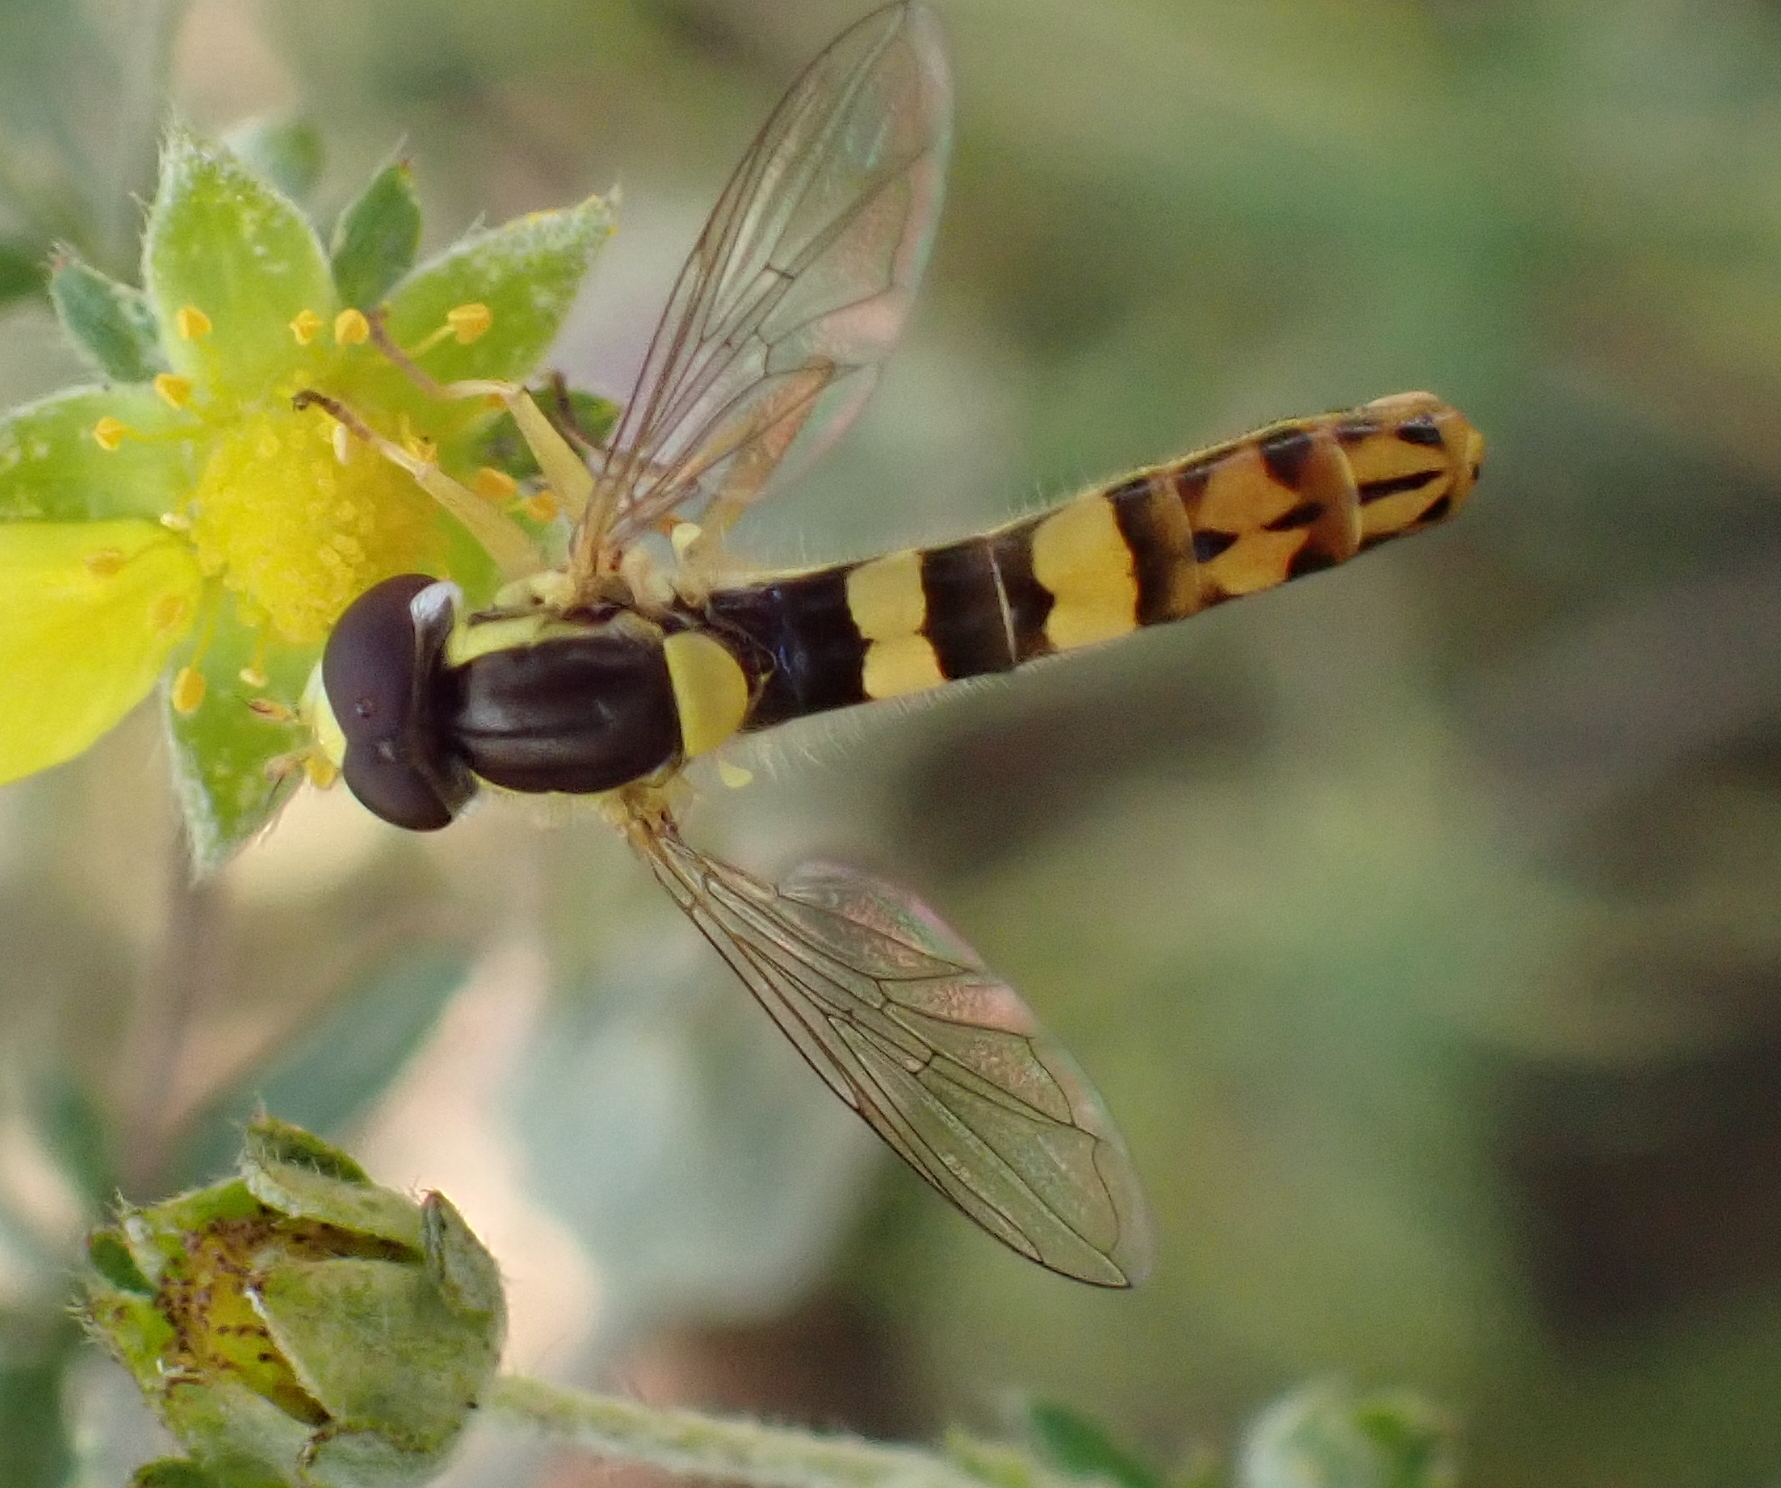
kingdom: Animalia
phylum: Arthropoda
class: Insecta
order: Diptera
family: Syrphidae
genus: Sphaerophoria
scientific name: Sphaerophoria scripta
